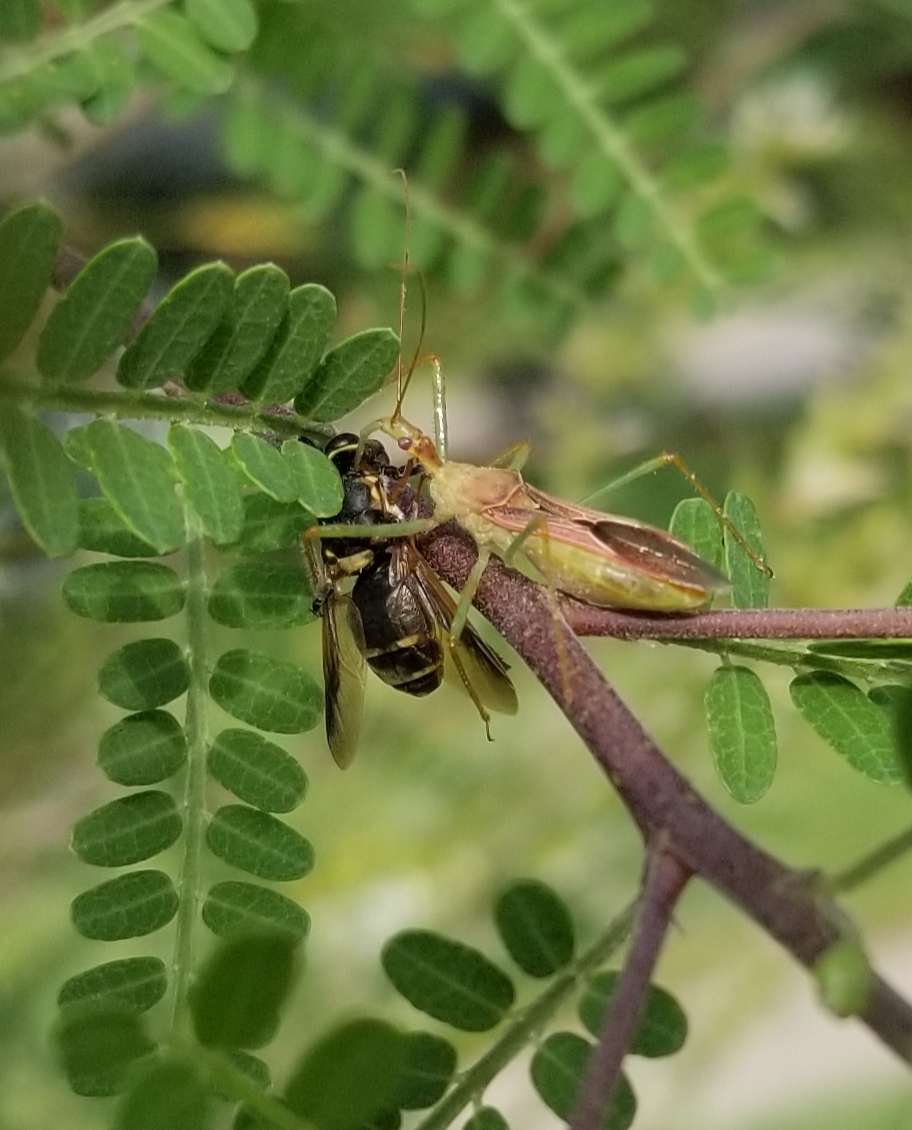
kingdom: Animalia
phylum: Arthropoda
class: Insecta
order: Hemiptera
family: Reduviidae
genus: Zelus
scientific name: Zelus renardii
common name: Assassin bug
